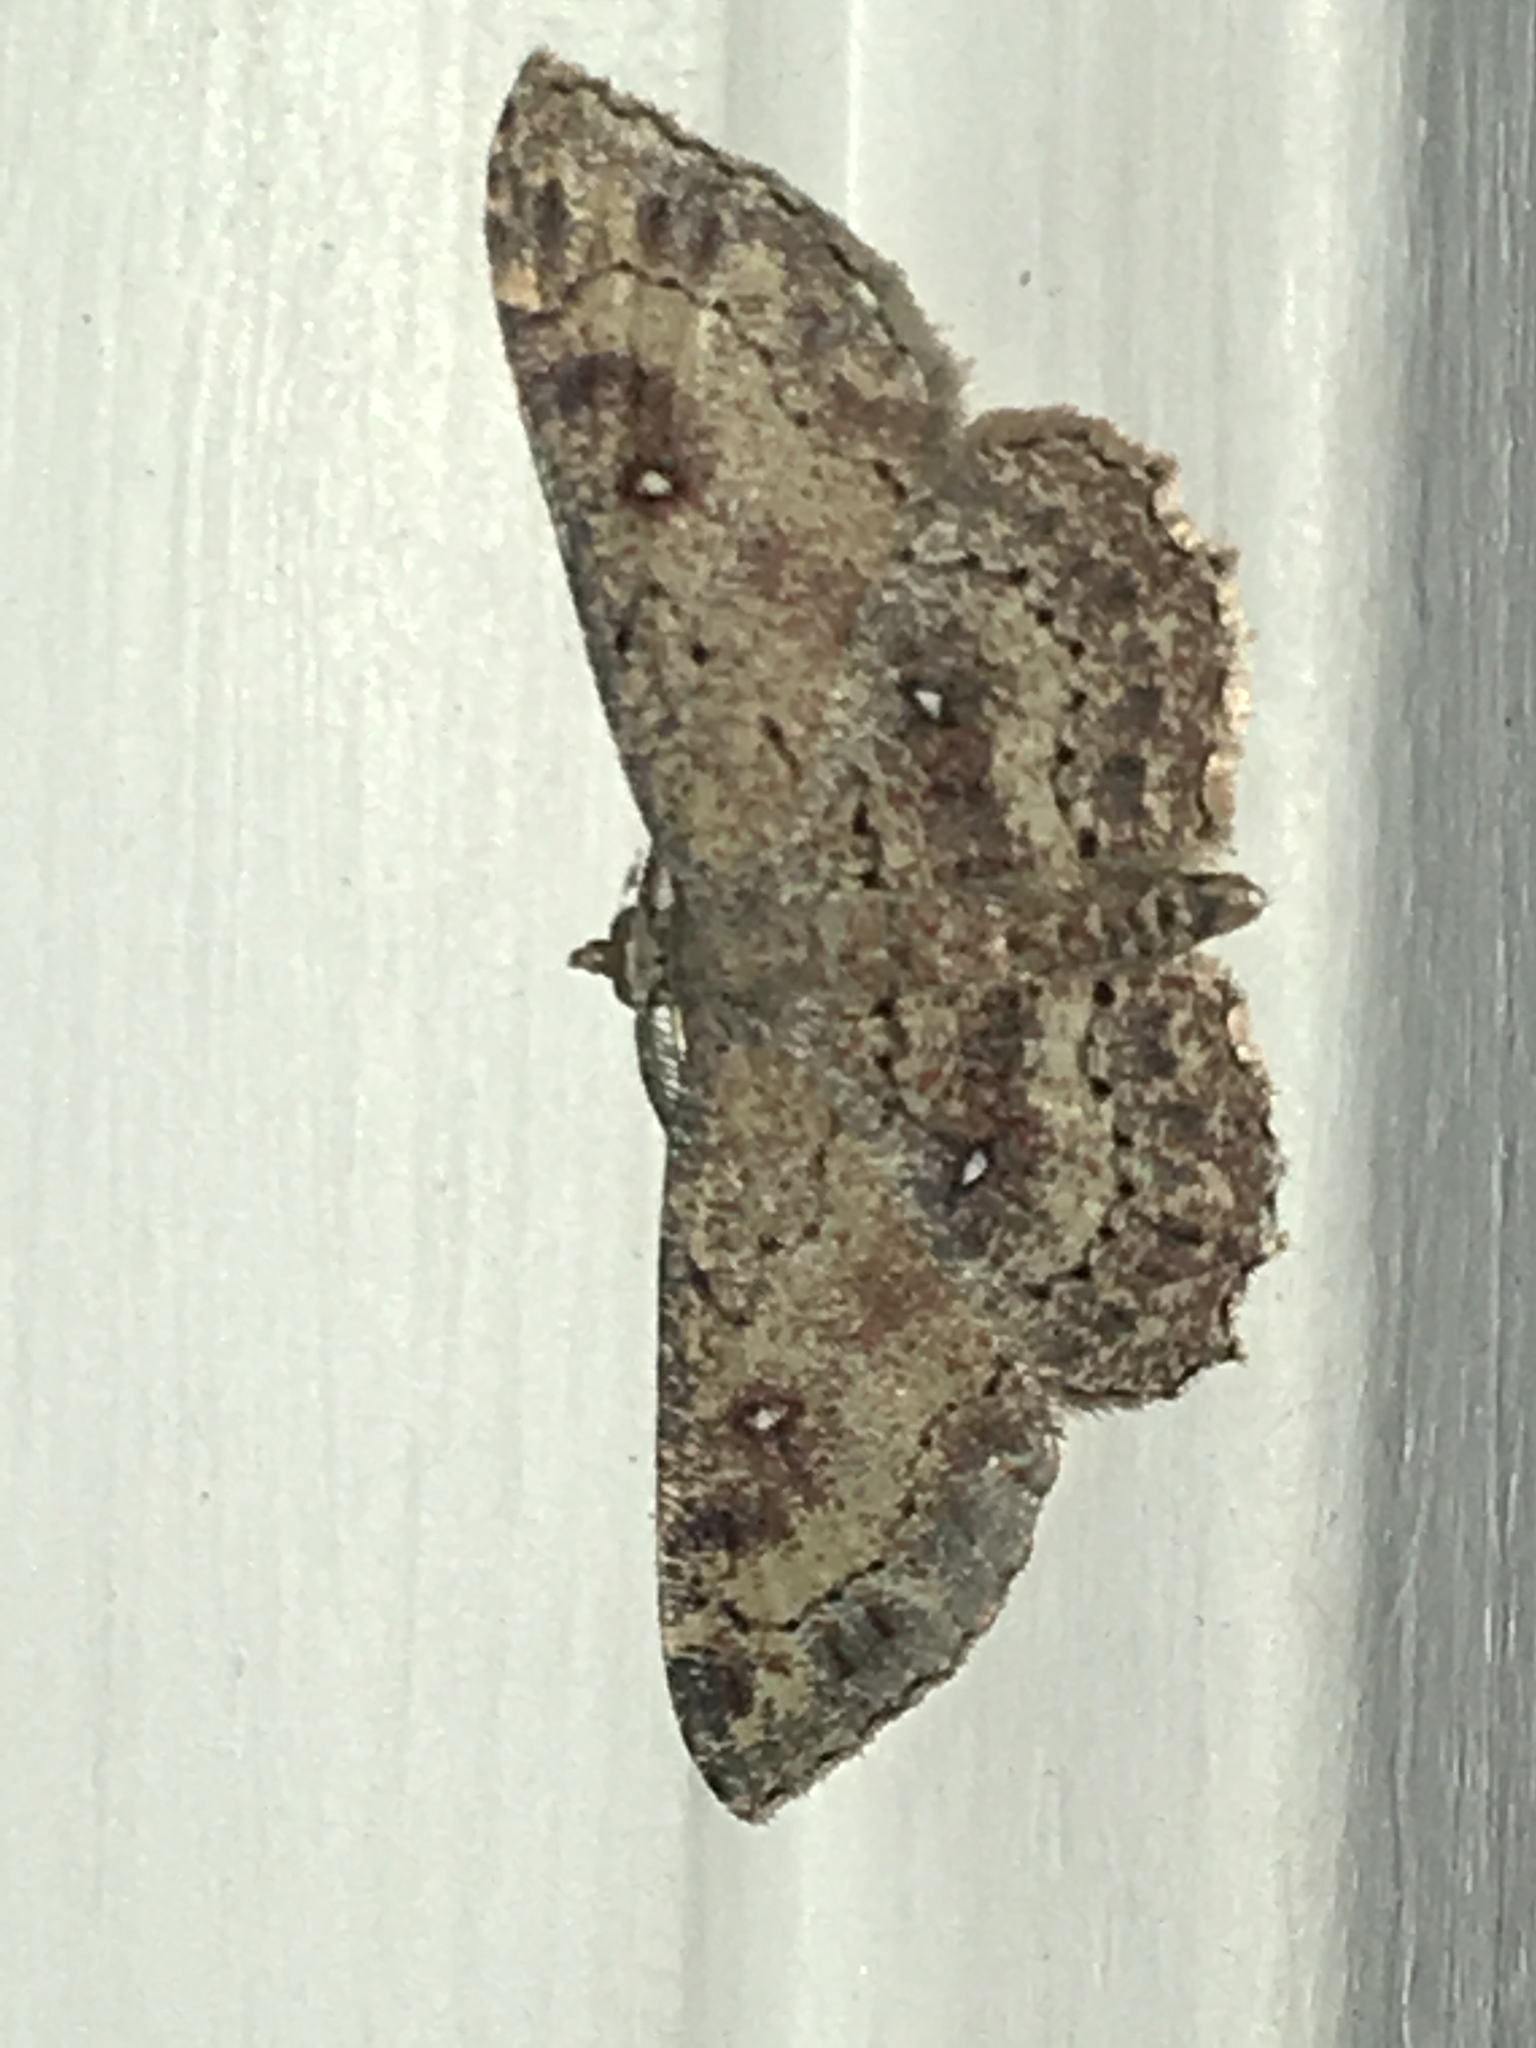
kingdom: Animalia
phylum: Arthropoda
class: Insecta
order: Lepidoptera
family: Geometridae
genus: Cyclophora
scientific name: Cyclophora nanaria
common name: Cankerworm
